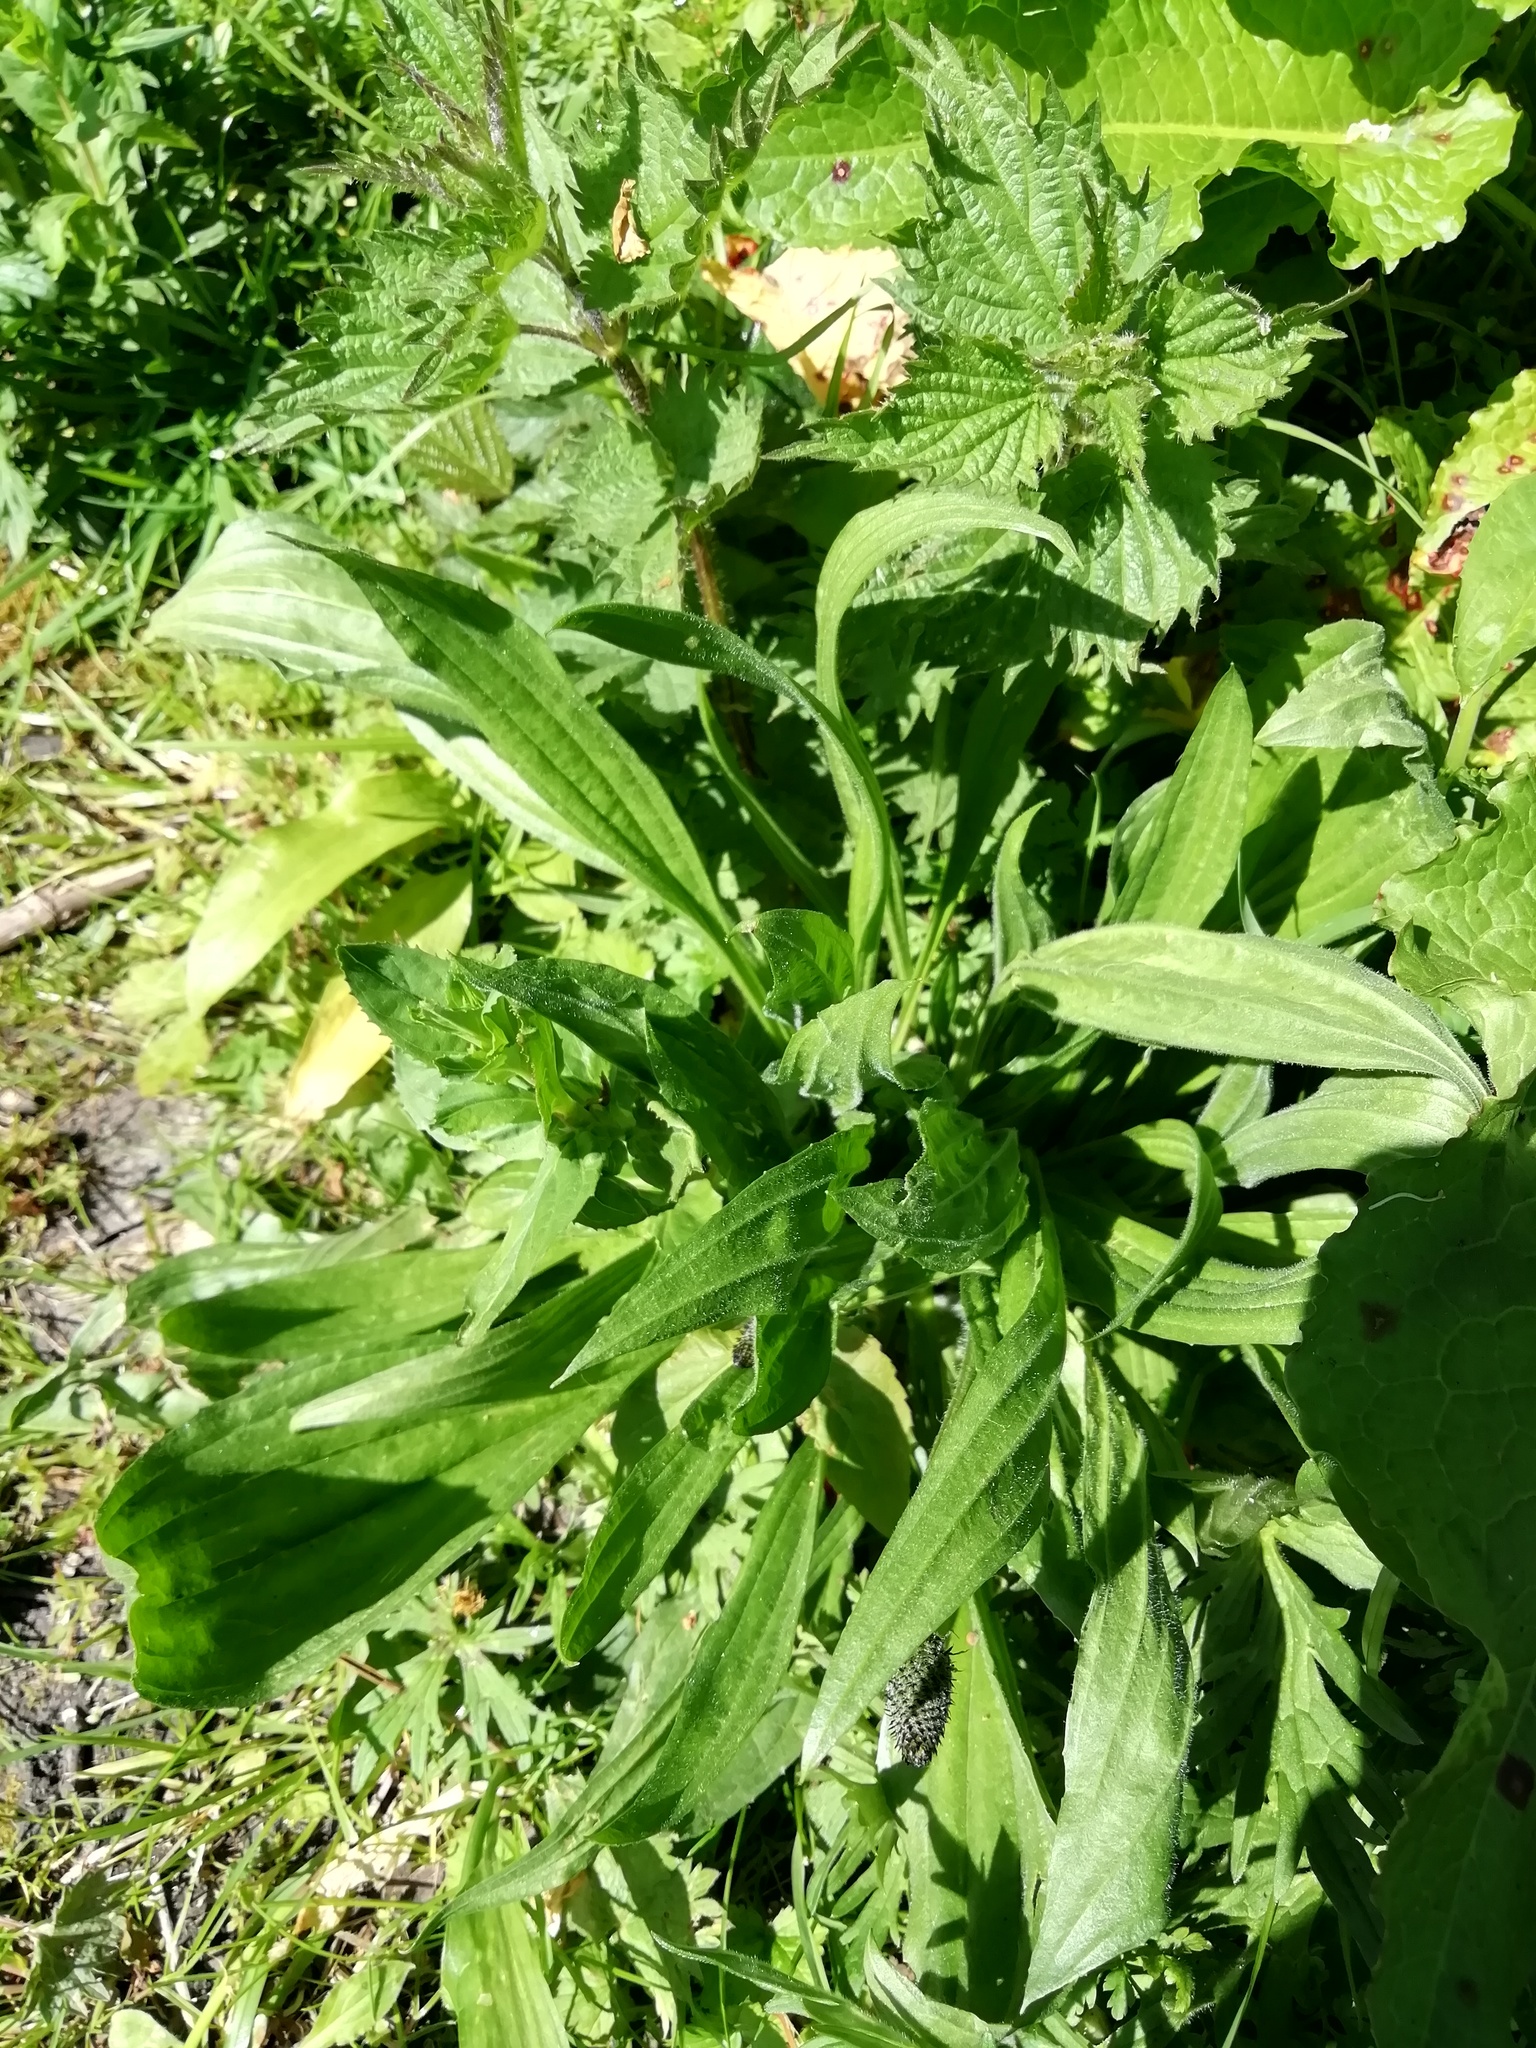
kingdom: Plantae
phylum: Tracheophyta
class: Magnoliopsida
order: Lamiales
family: Plantaginaceae
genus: Plantago
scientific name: Plantago lanceolata
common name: Ribwort plantain
